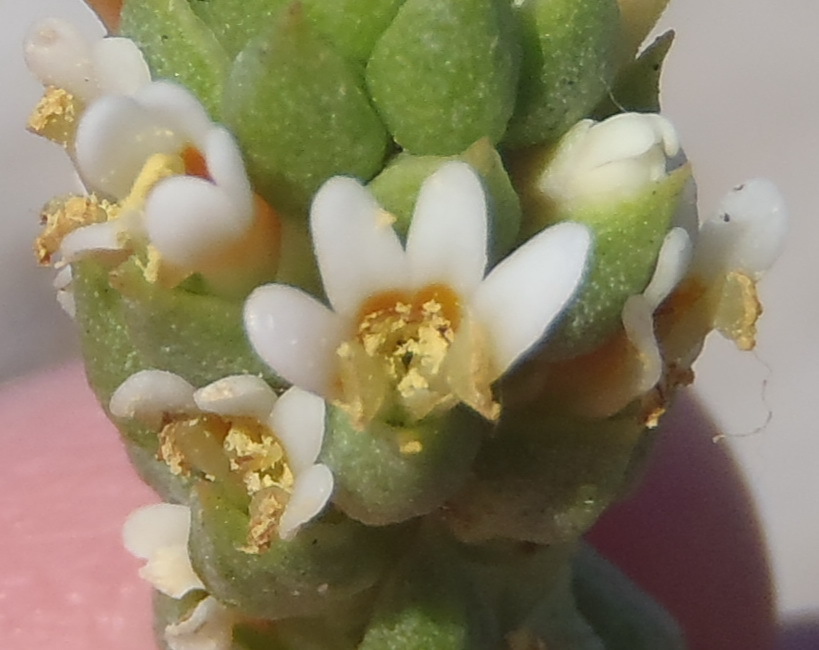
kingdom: Plantae
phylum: Tracheophyta
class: Magnoliopsida
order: Lamiales
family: Scrophulariaceae
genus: Hebenstretia
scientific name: Hebenstretia cordata
